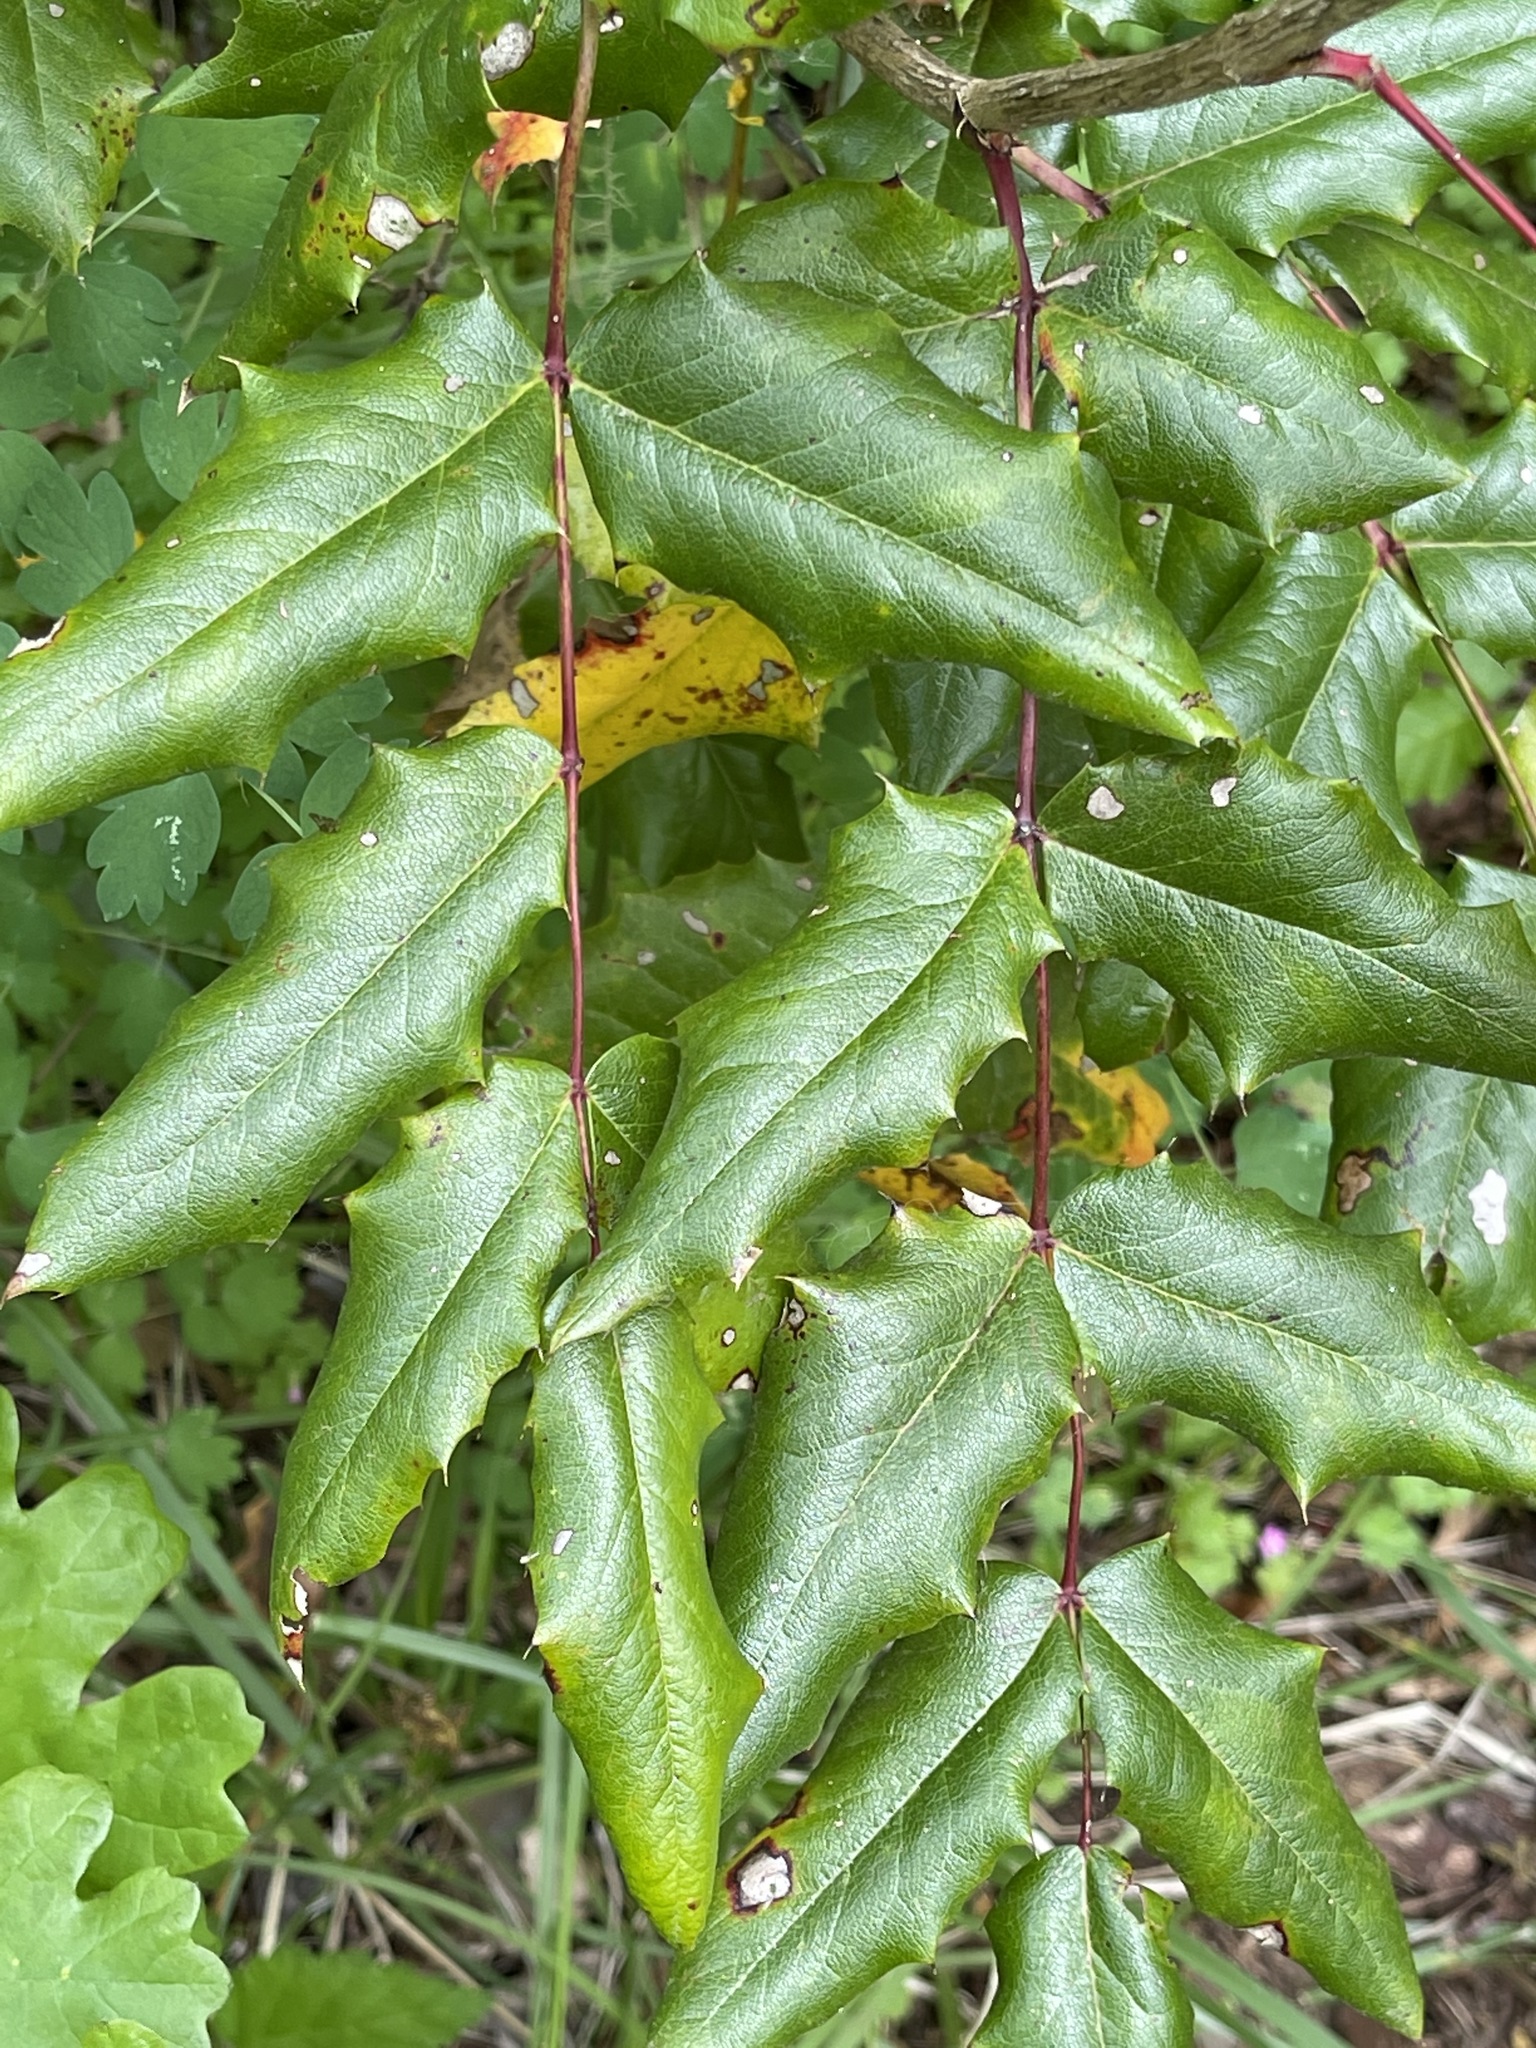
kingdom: Plantae
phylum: Tracheophyta
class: Magnoliopsida
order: Ranunculales
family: Berberidaceae
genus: Mahonia
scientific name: Mahonia aquifolium
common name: Oregon-grape
